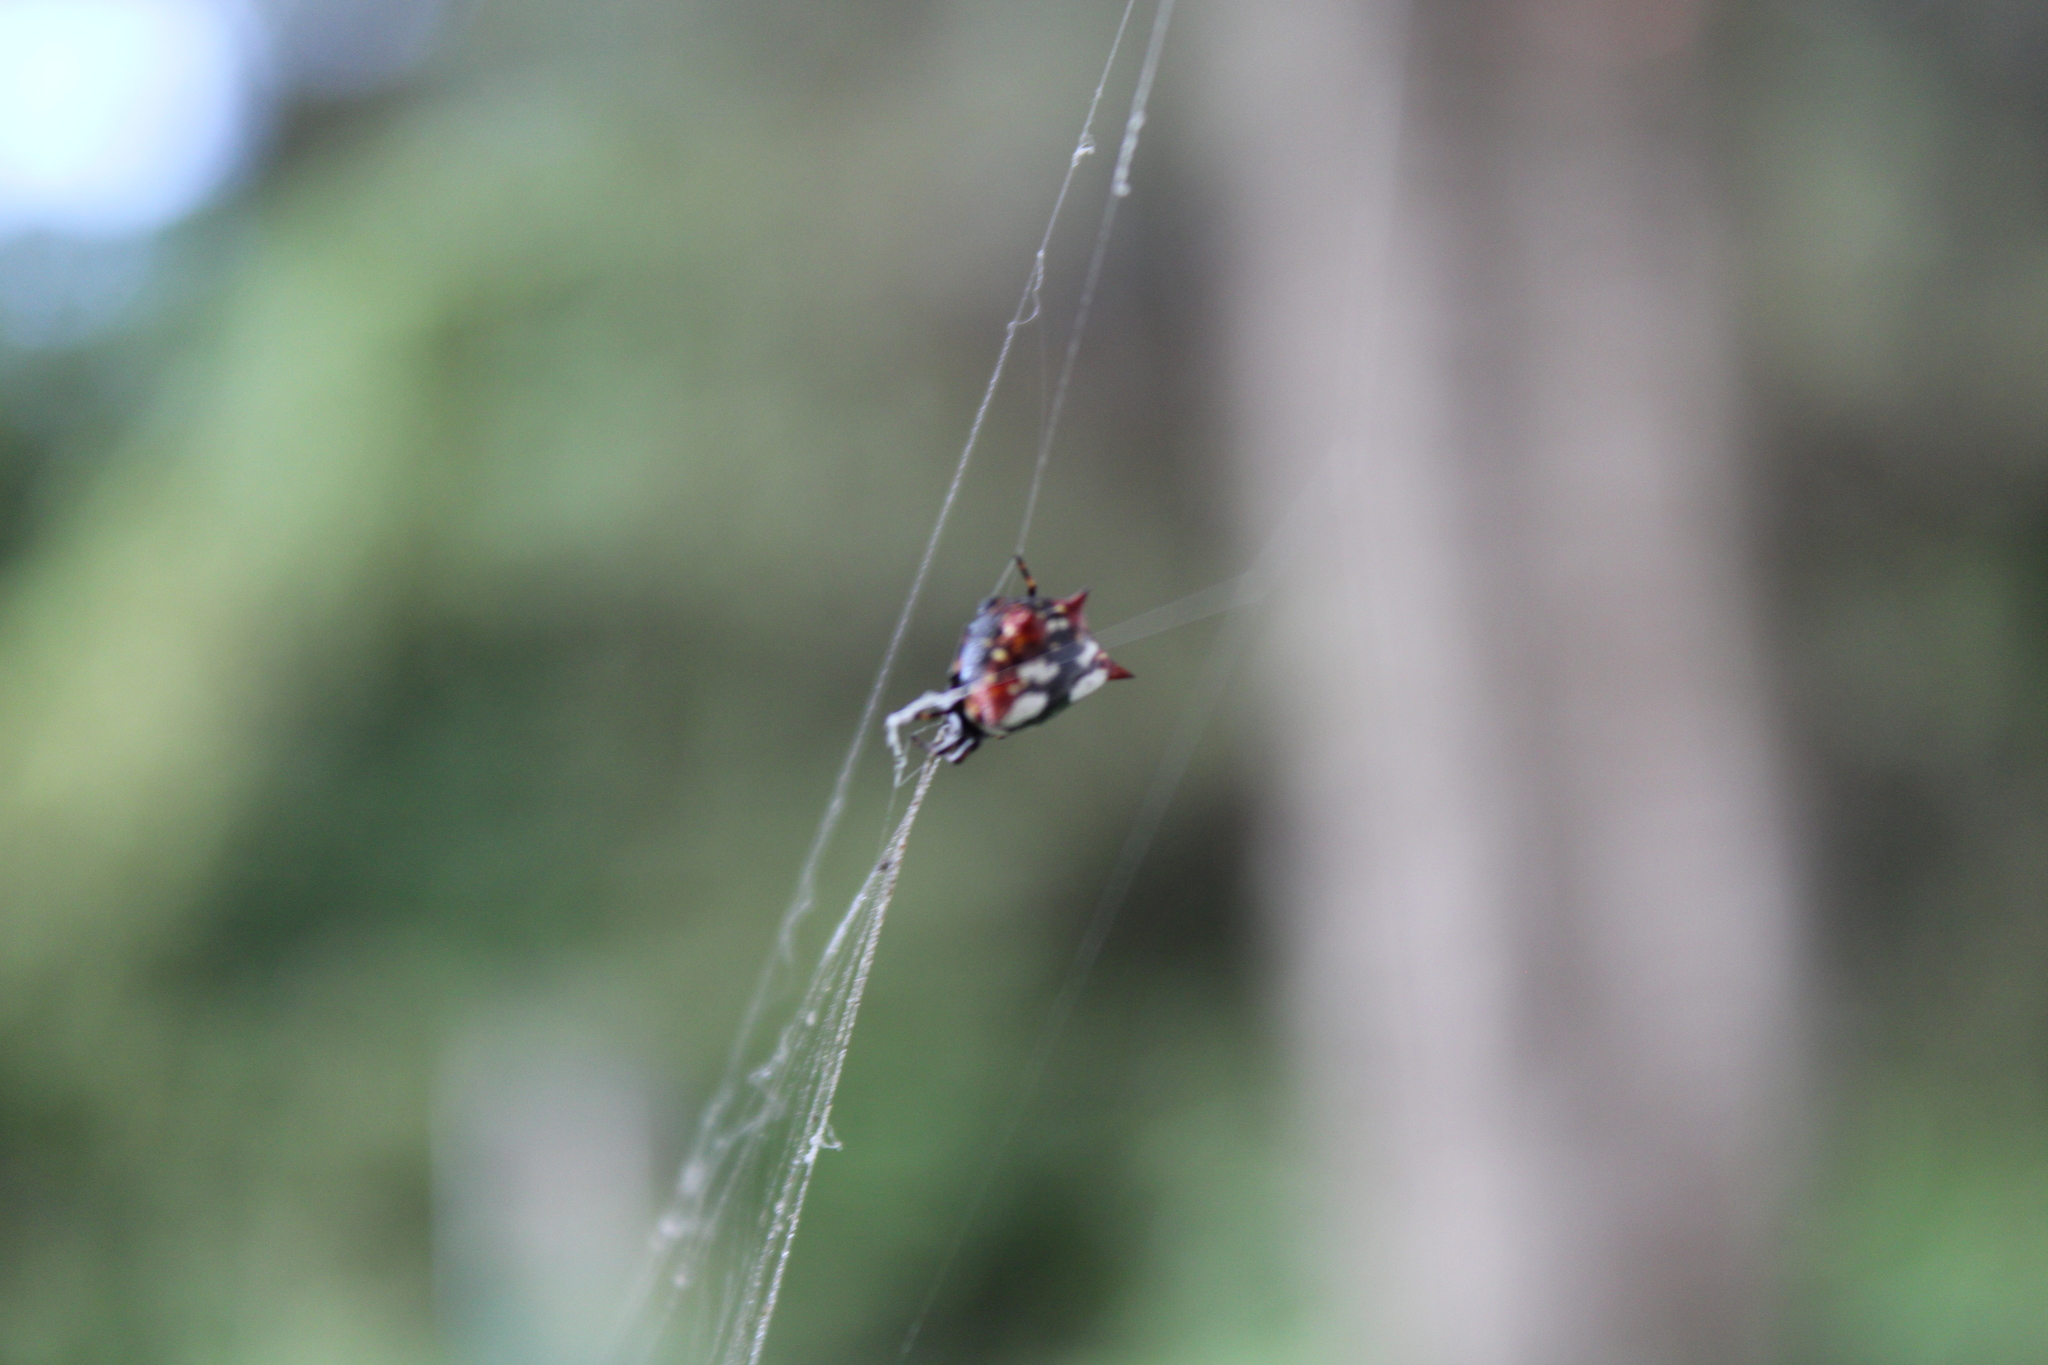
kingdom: Animalia
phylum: Arthropoda
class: Arachnida
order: Araneae
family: Araneidae
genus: Gasteracantha
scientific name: Gasteracantha cancriformis
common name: Orb weavers
